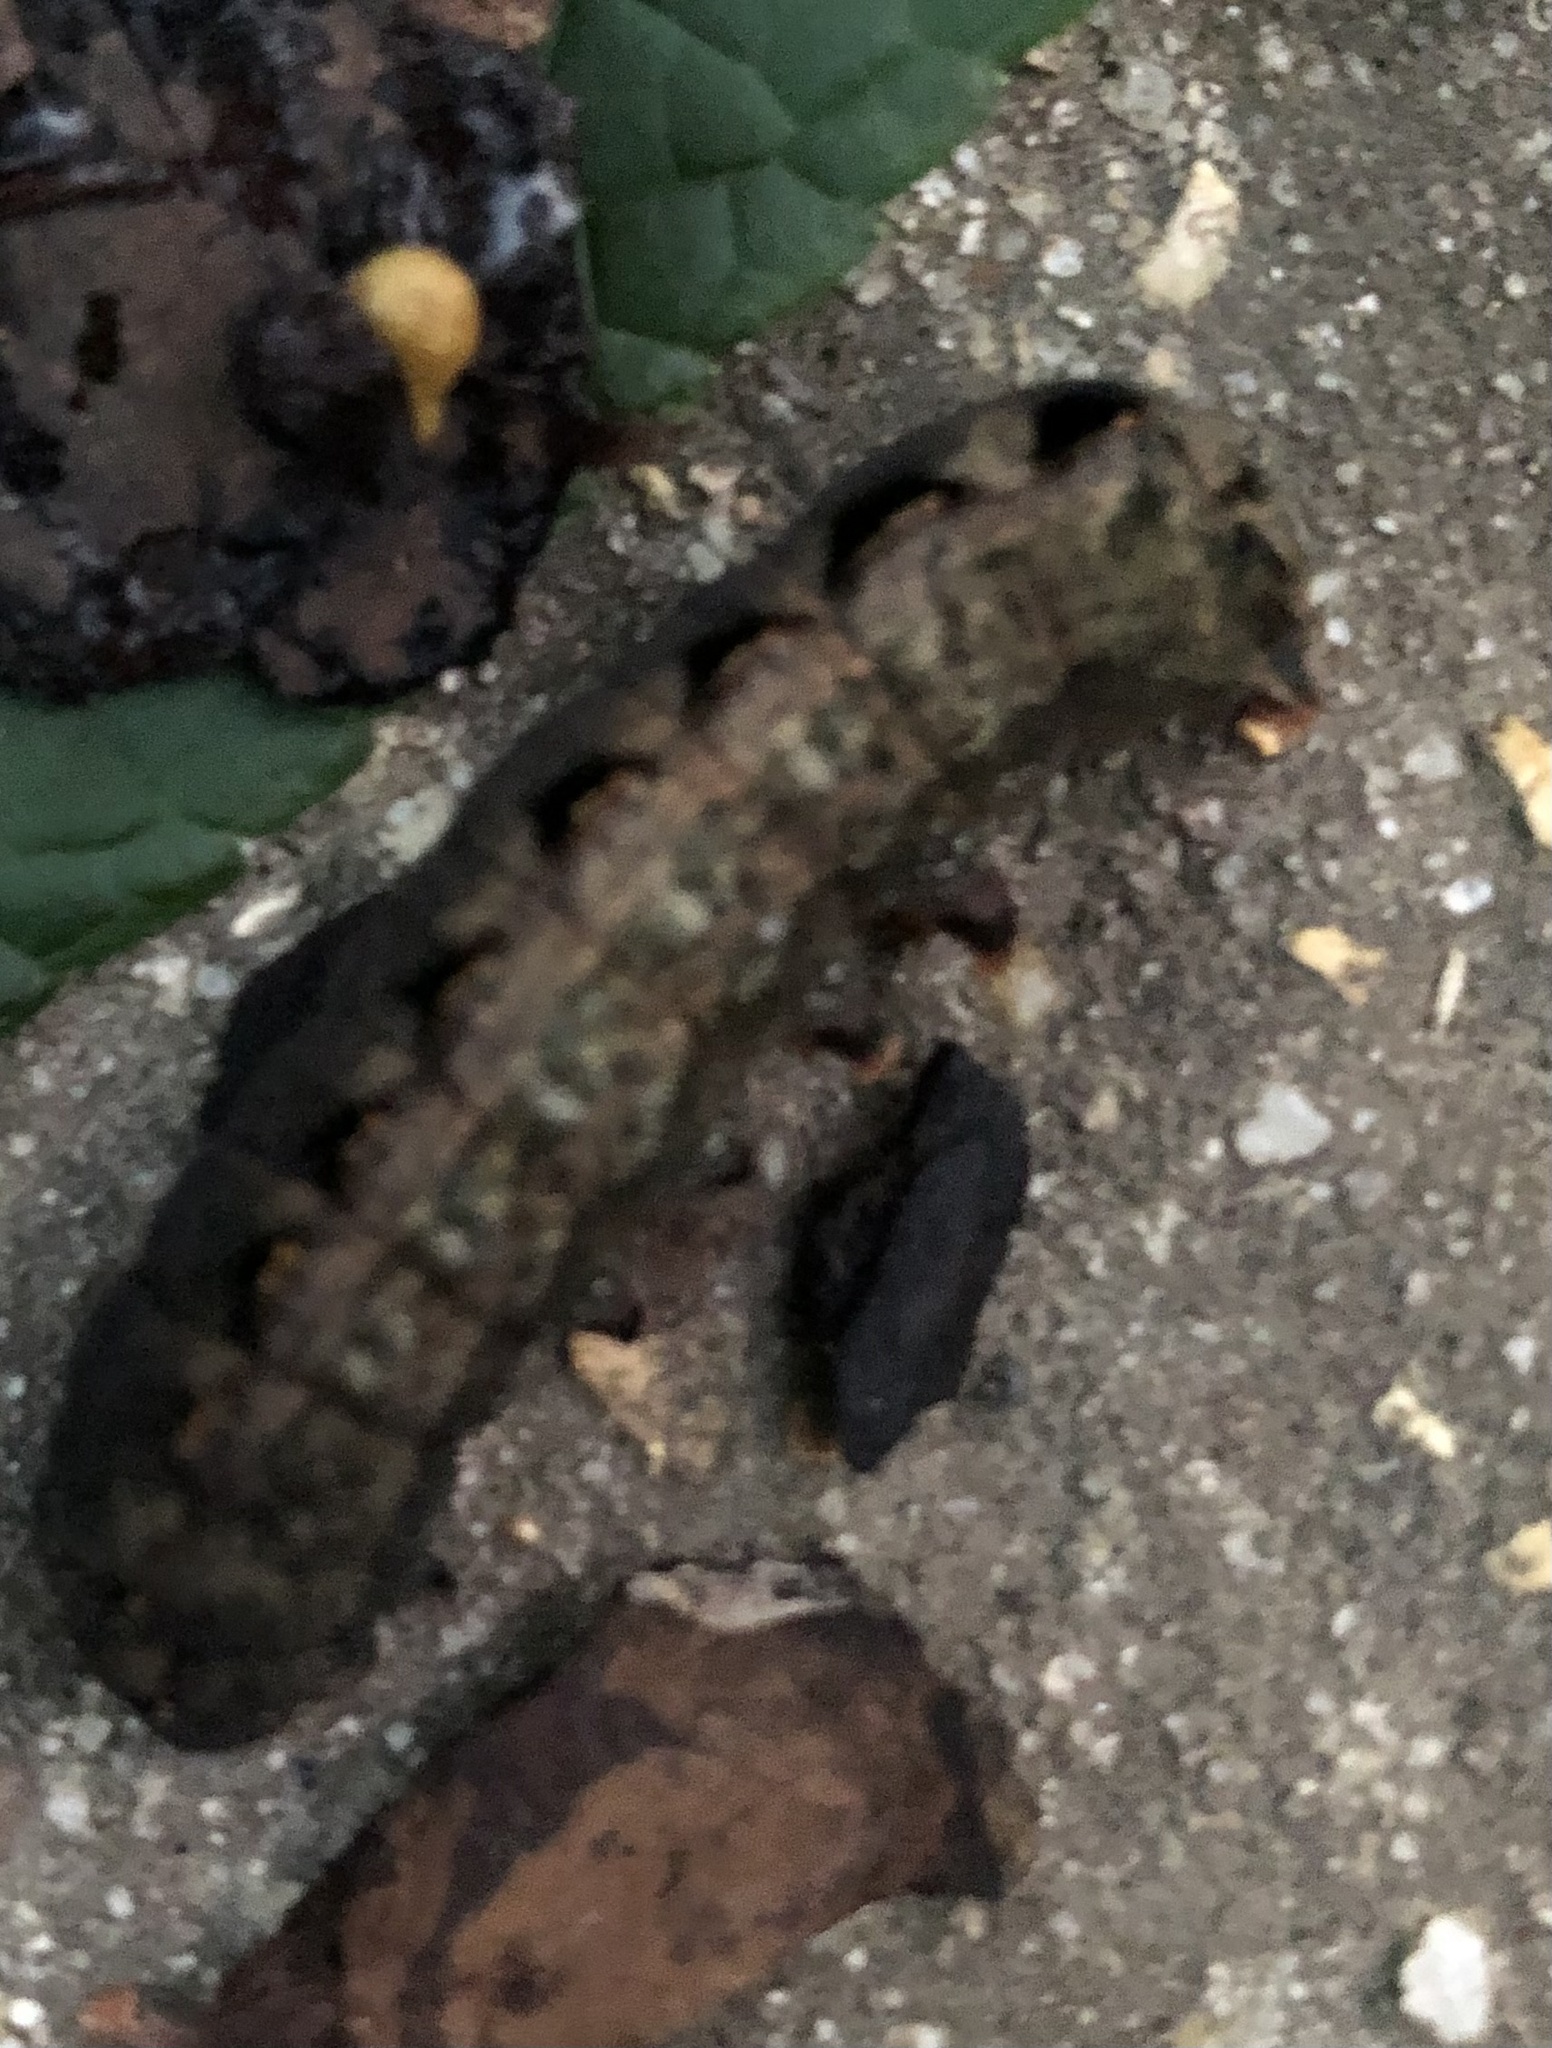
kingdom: Animalia
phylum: Arthropoda
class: Insecta
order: Lepidoptera
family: Noctuidae
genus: Spodoptera
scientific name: Spodoptera latifascia
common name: Velvet armyworm moth
